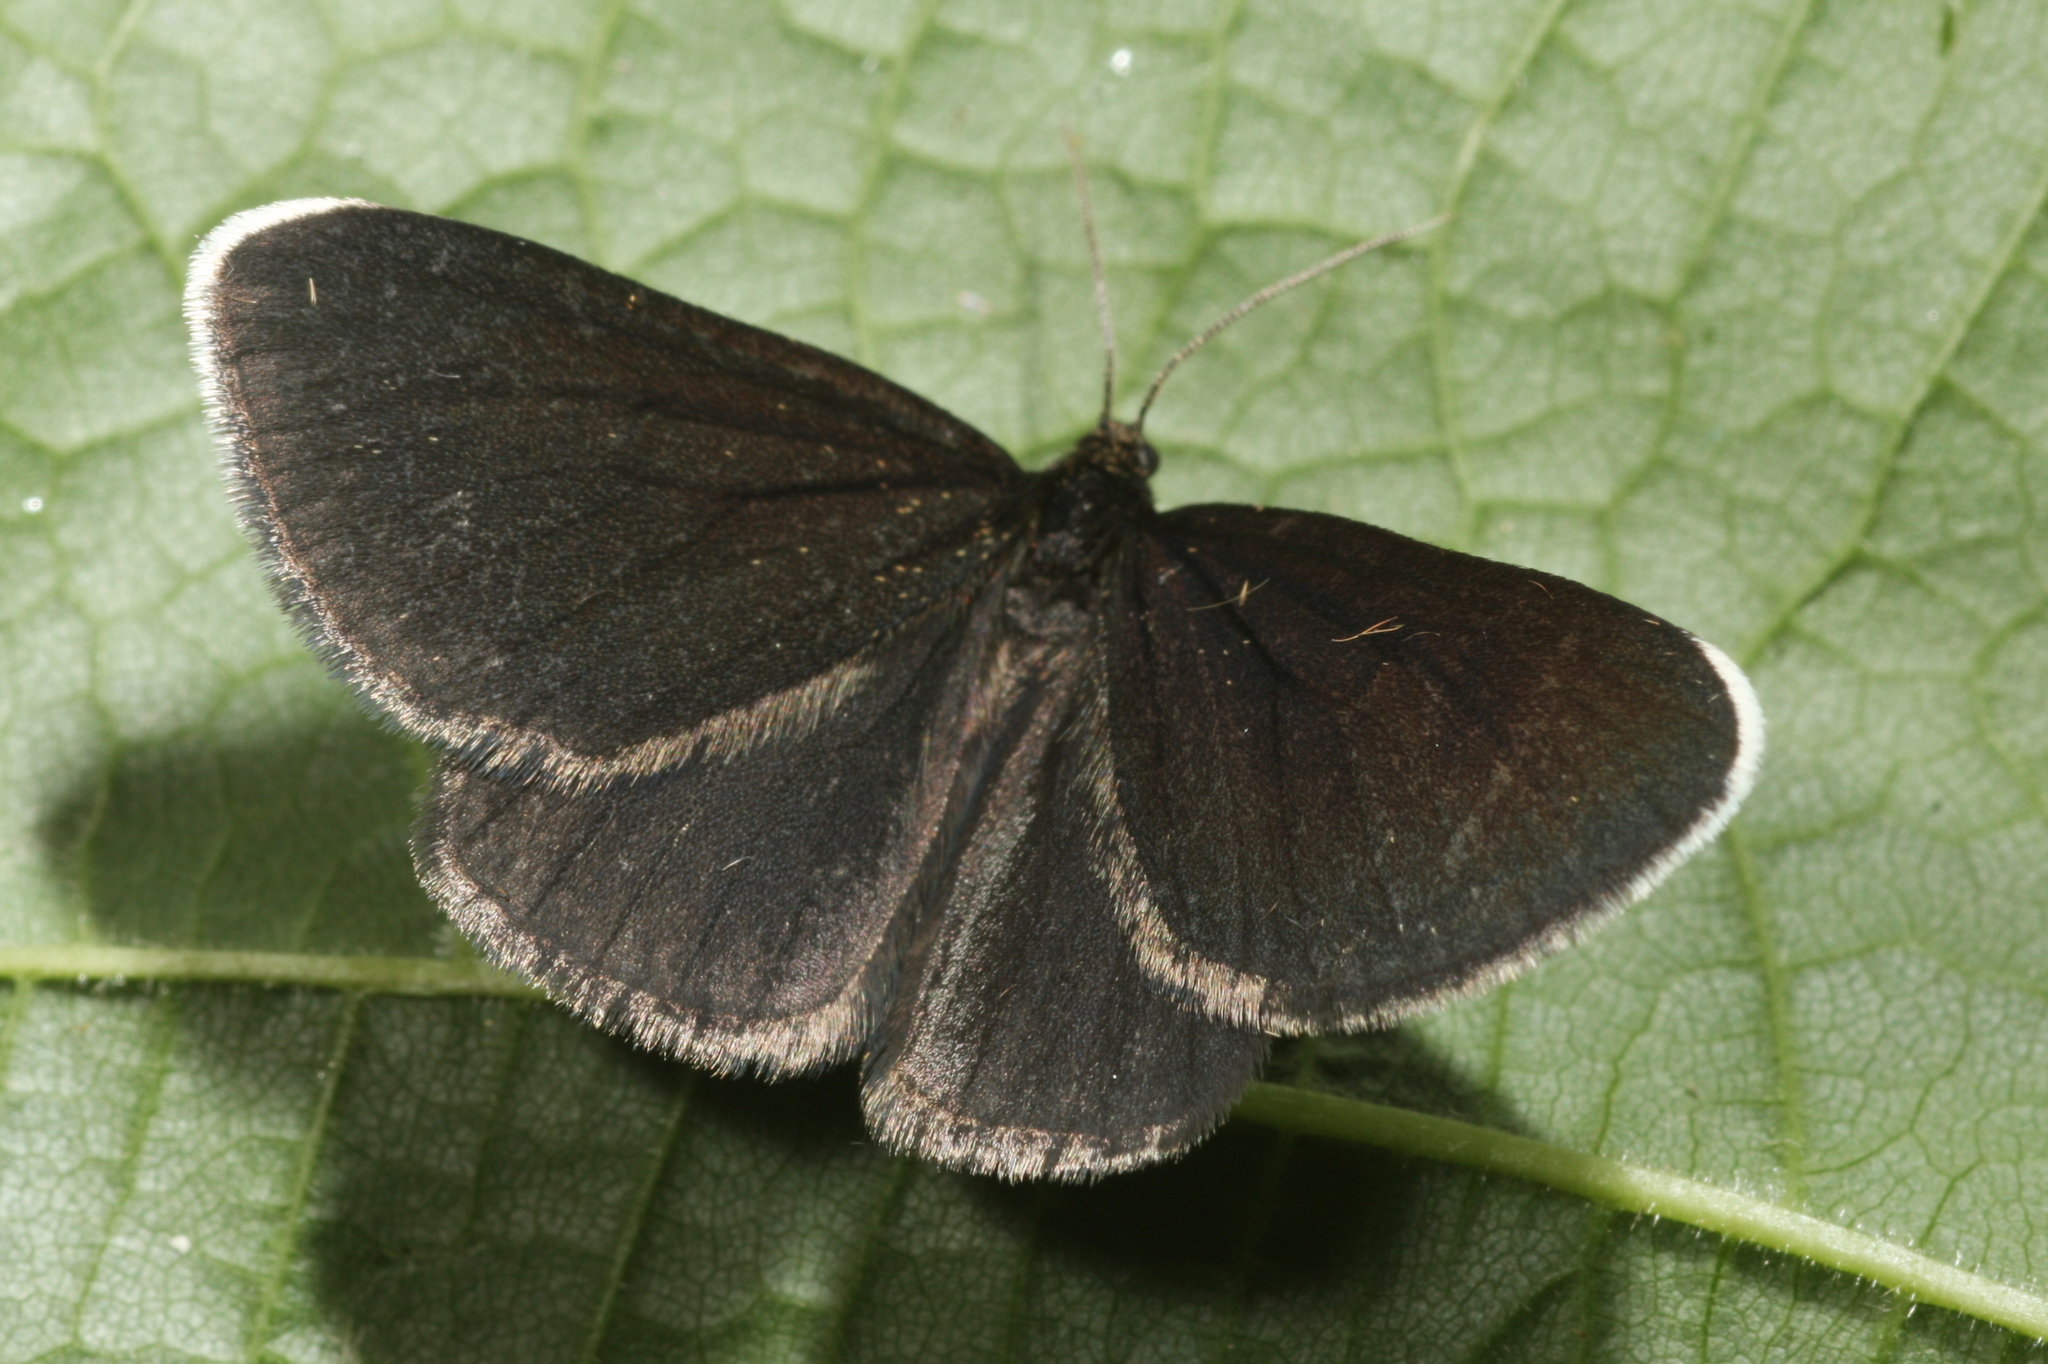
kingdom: Animalia
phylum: Arthropoda
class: Insecta
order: Lepidoptera
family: Geometridae
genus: Odezia
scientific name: Odezia atrata
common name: Chimney sweeper
